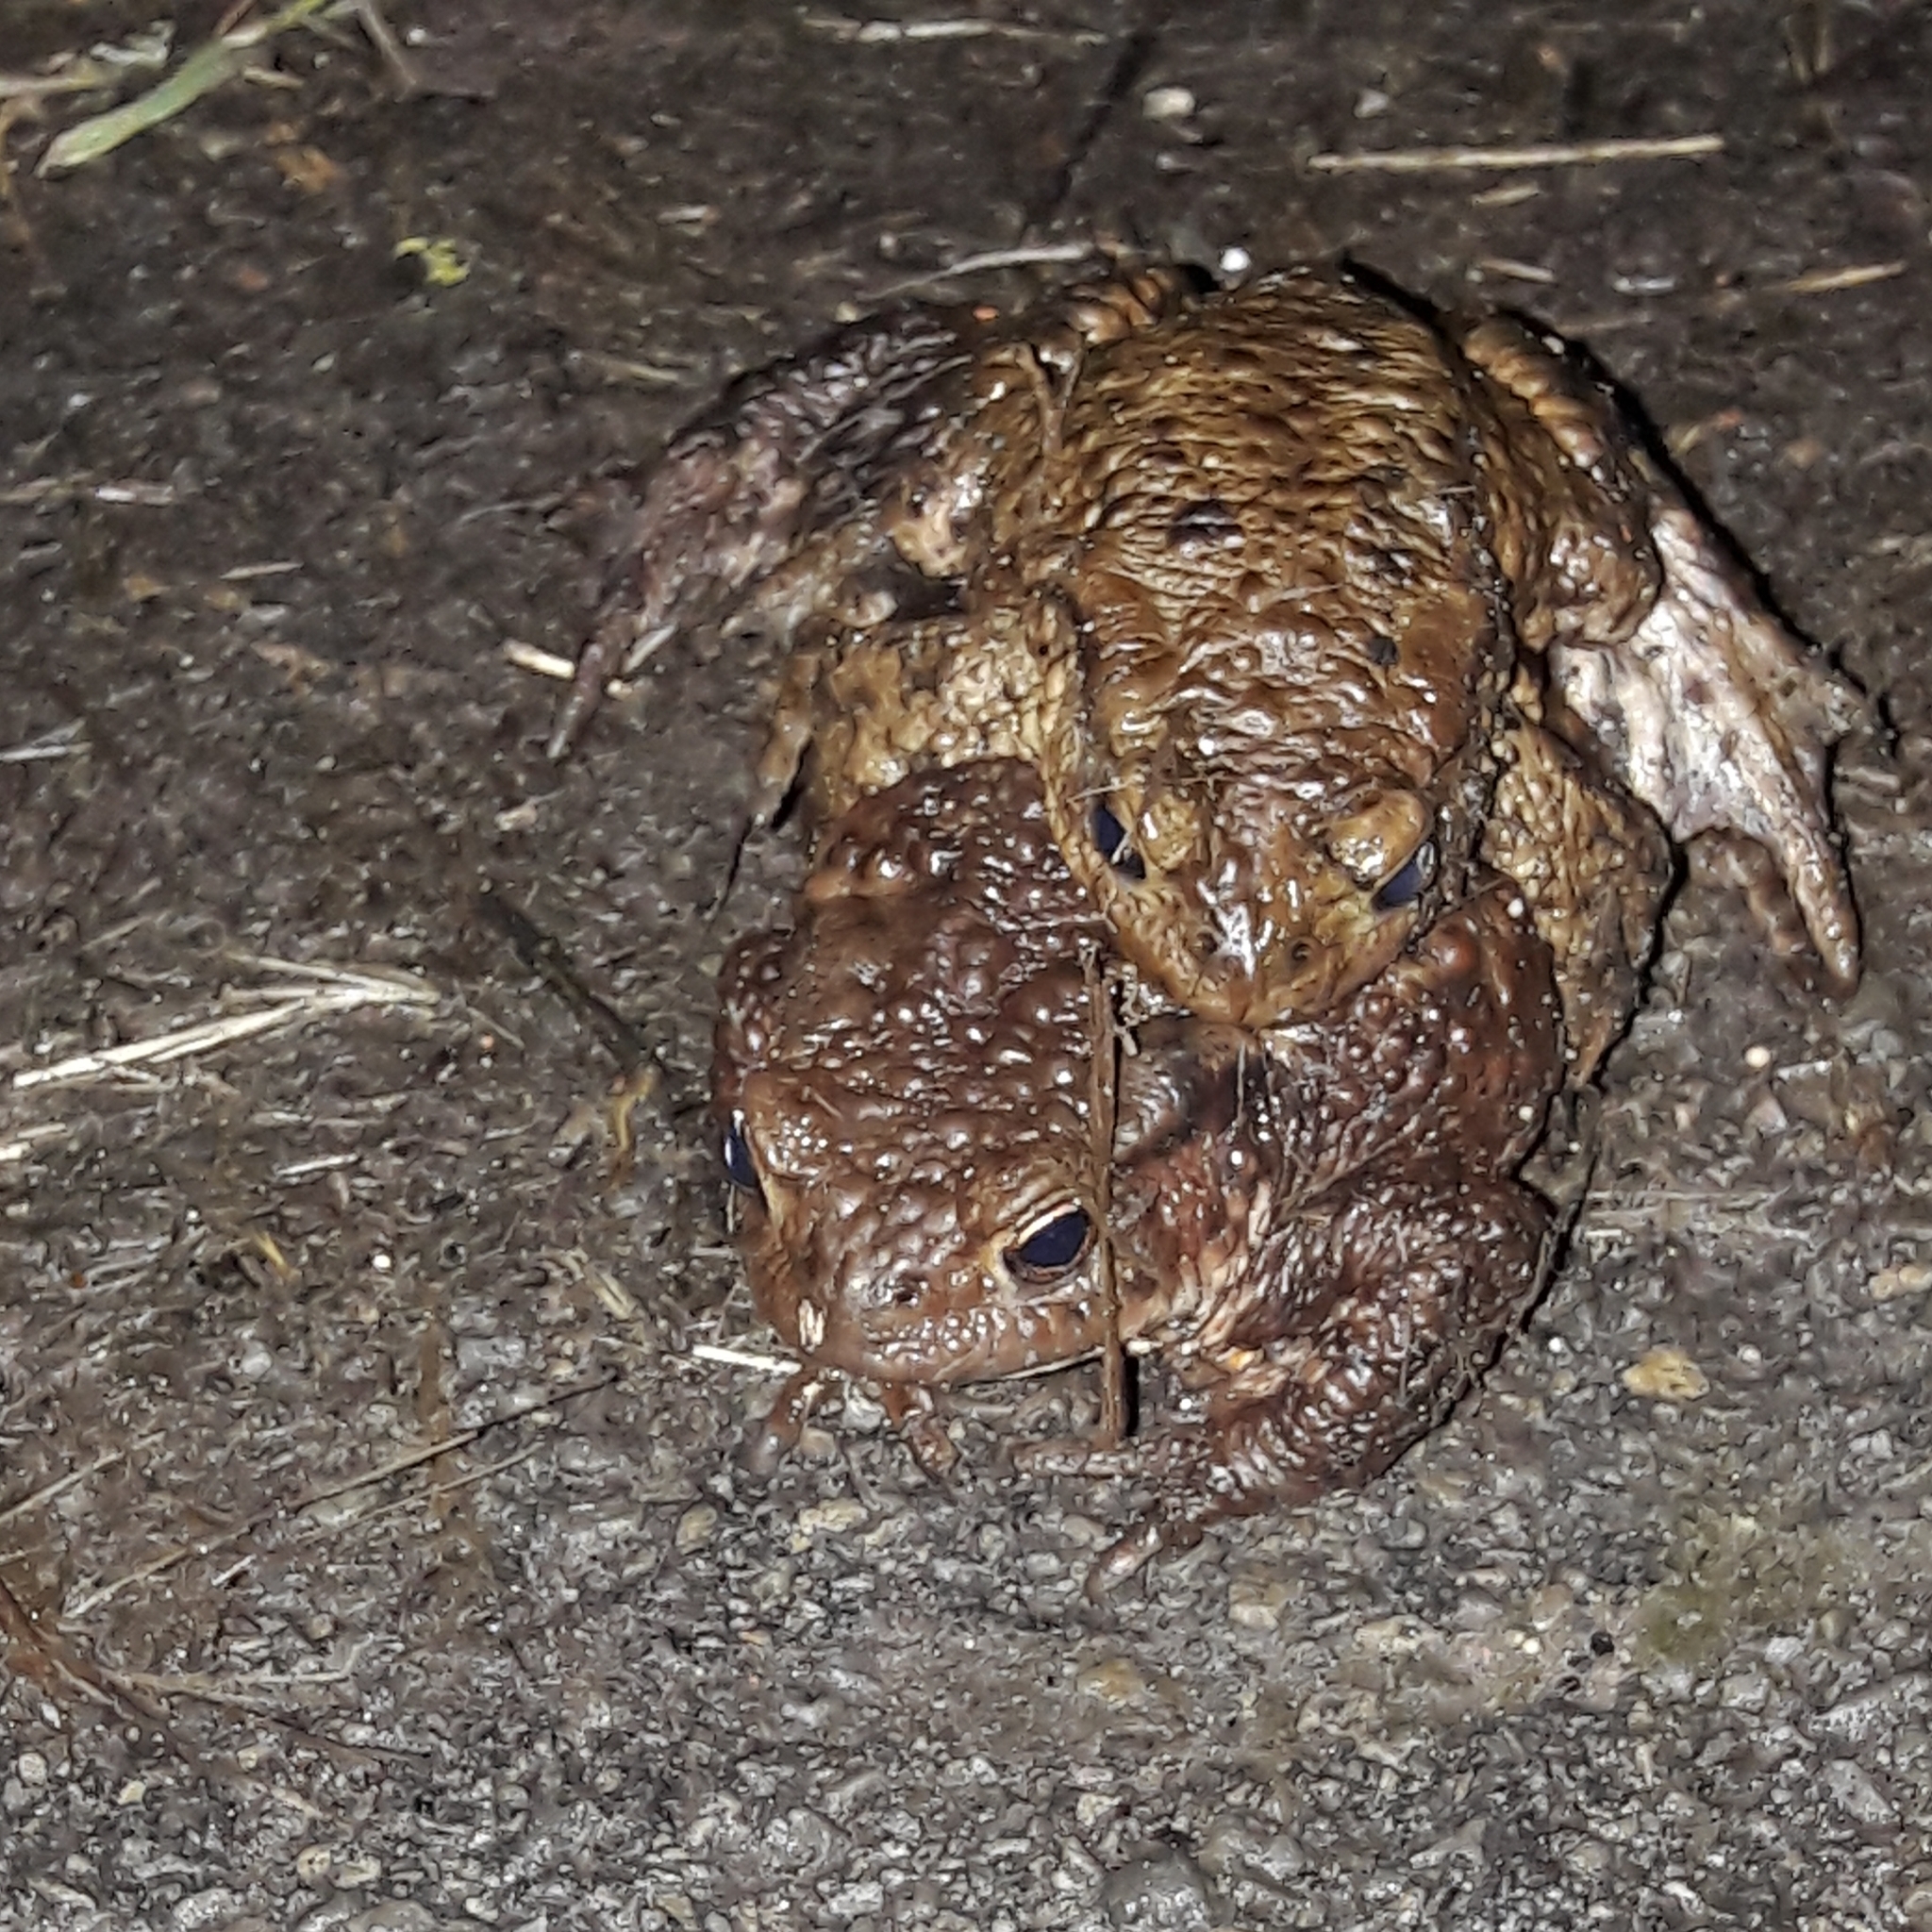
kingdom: Animalia
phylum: Chordata
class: Amphibia
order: Anura
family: Bufonidae
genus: Bufo
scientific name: Bufo bufo
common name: Common toad
